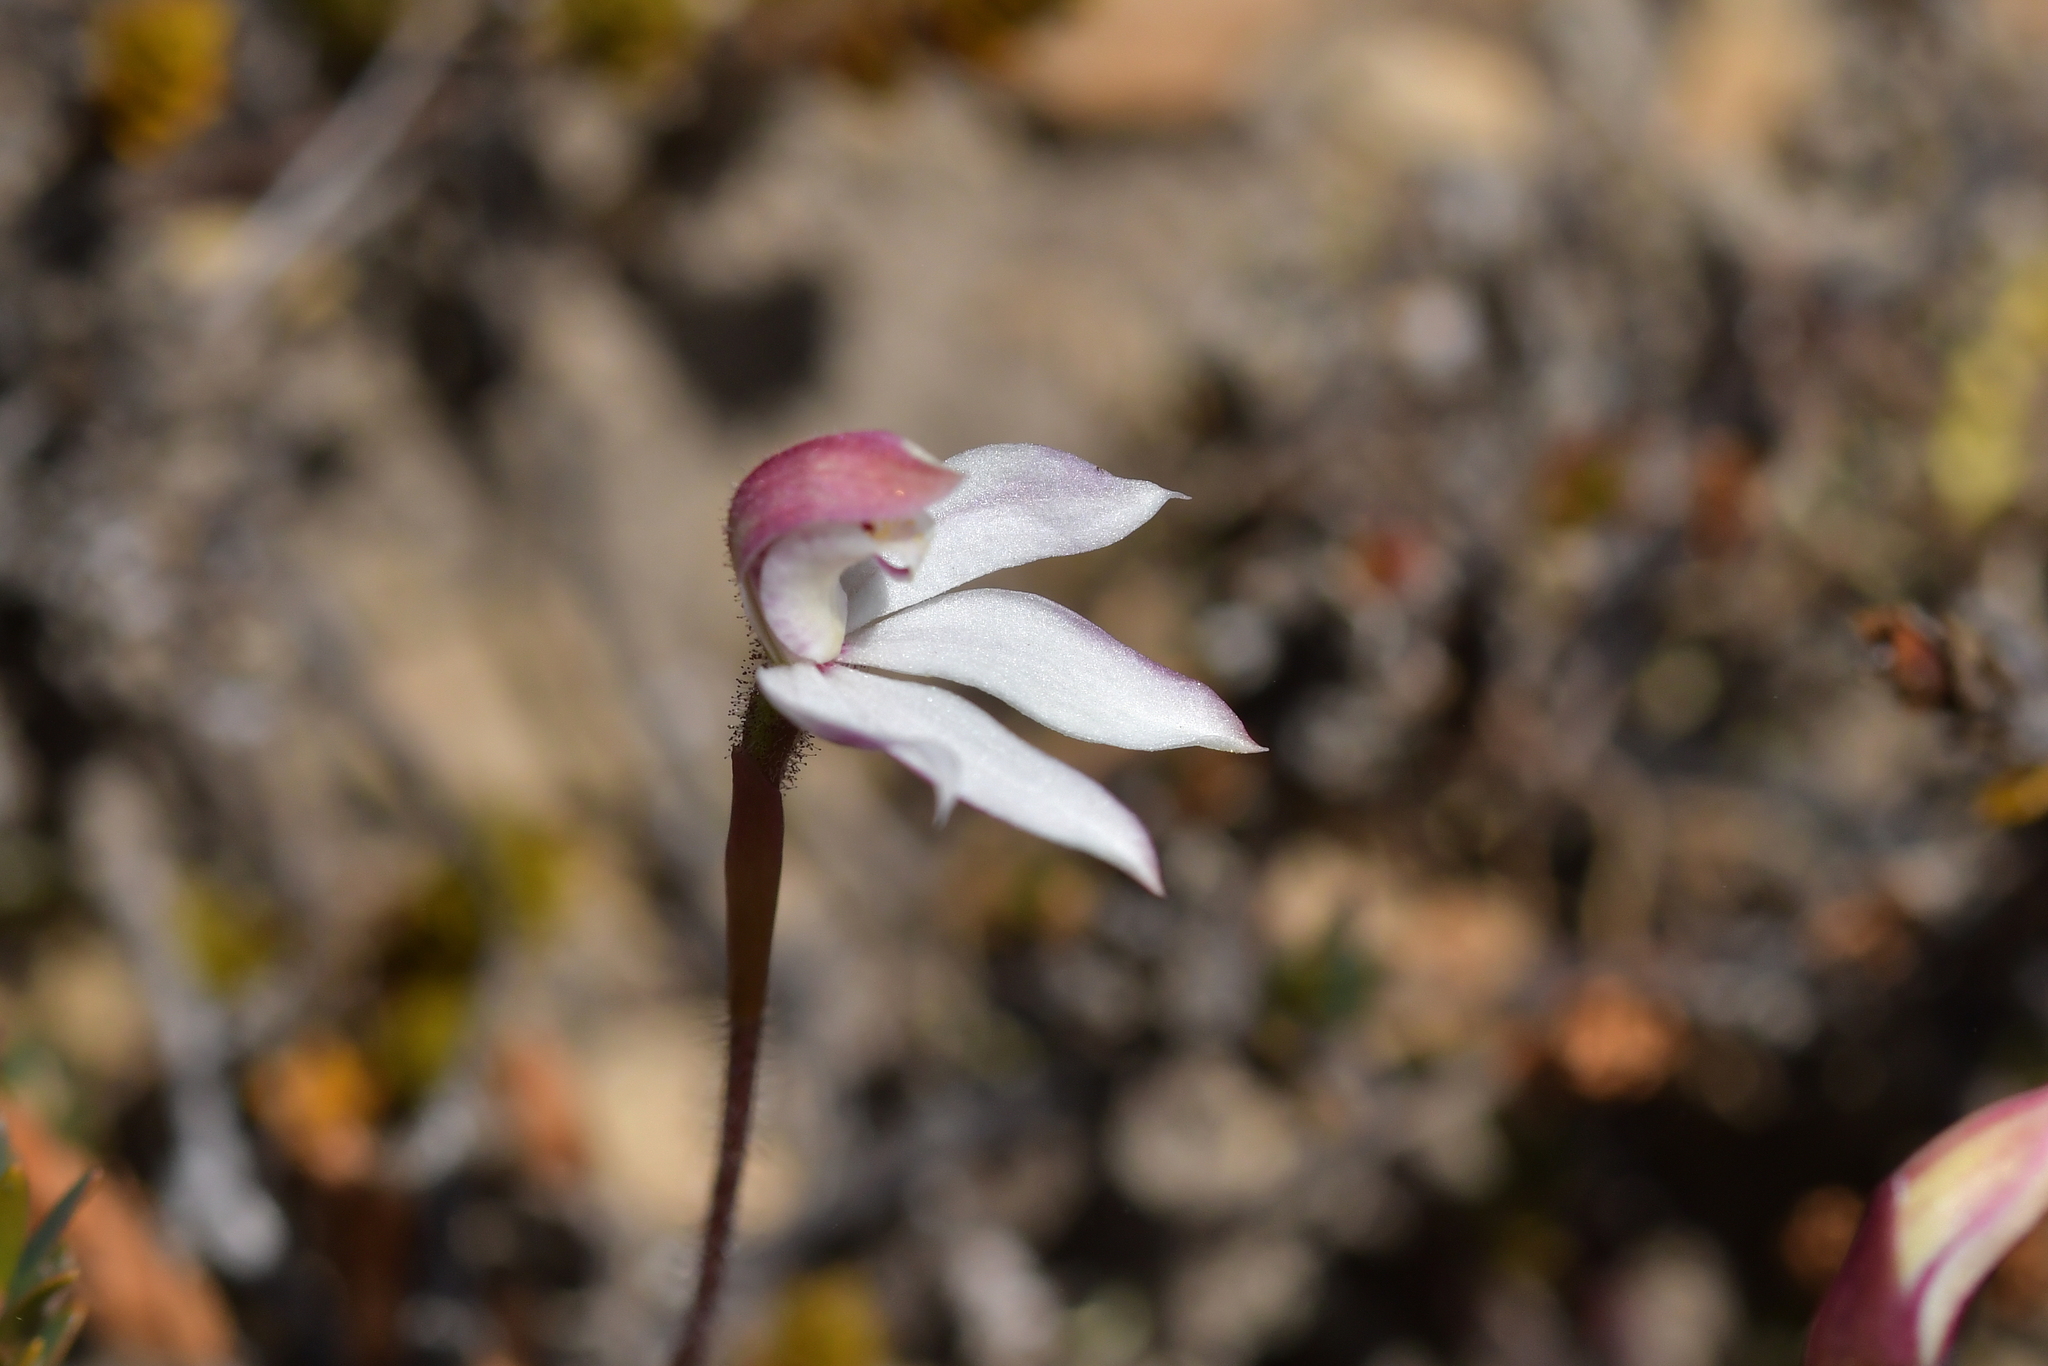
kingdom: Plantae
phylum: Tracheophyta
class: Liliopsida
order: Asparagales
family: Orchidaceae
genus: Caladenia
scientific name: Caladenia lyallii
